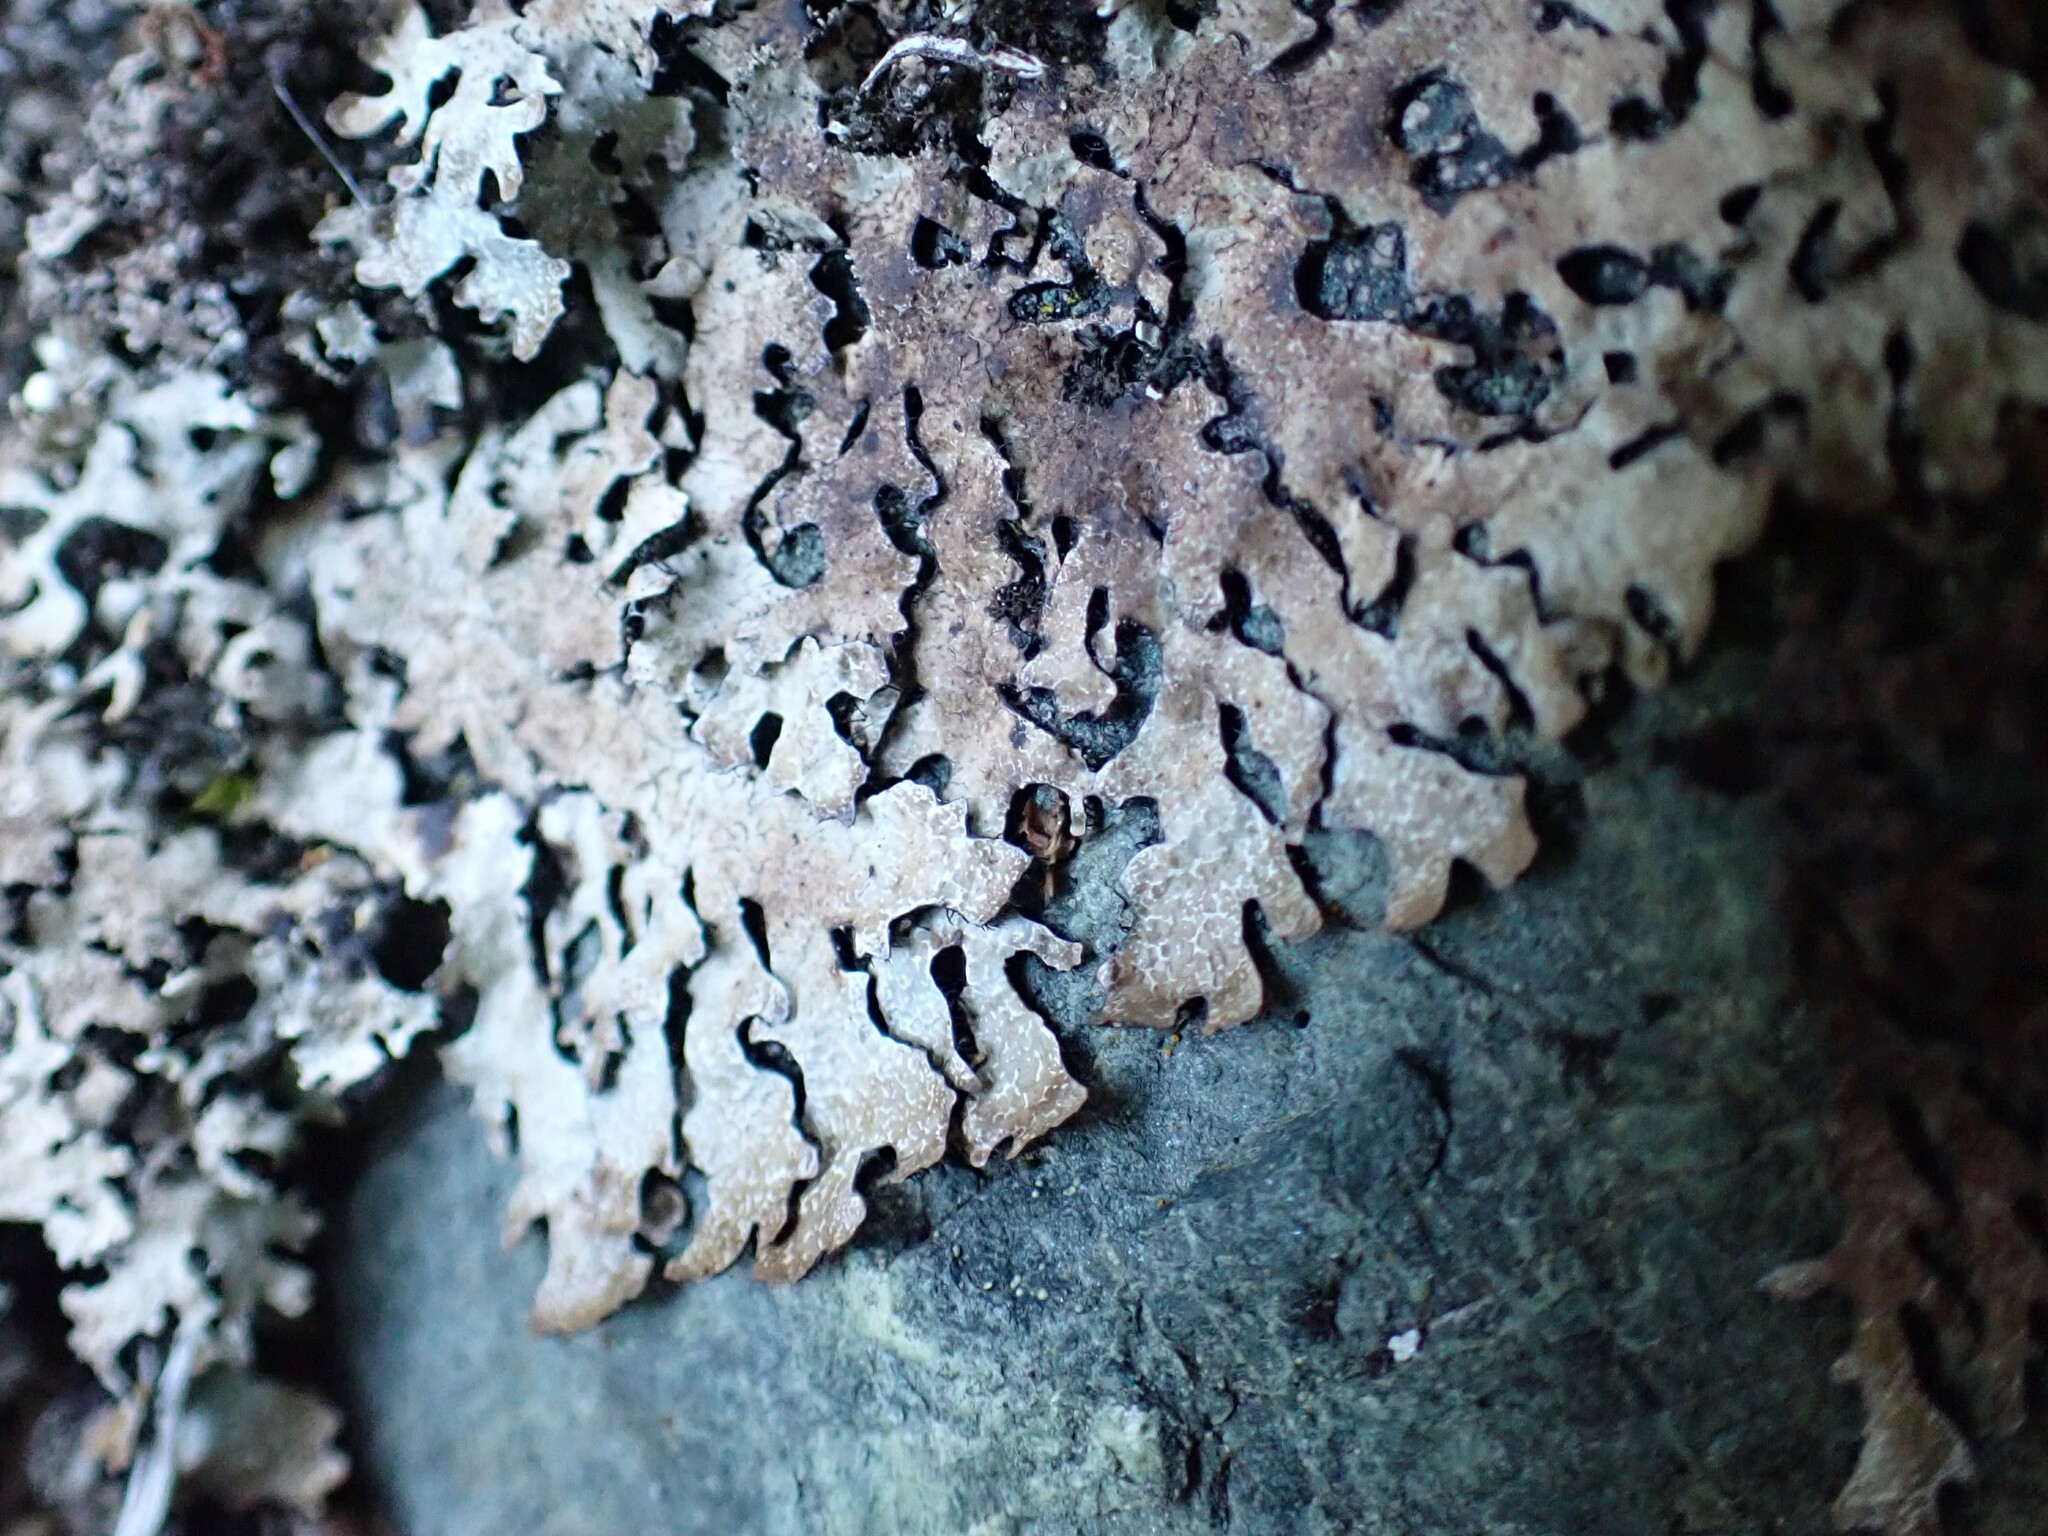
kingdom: Fungi
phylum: Ascomycota
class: Lecanoromycetes
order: Lecanorales
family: Parmeliaceae
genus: Parmelia
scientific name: Parmelia saxatilis
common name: Salted shield lichen
